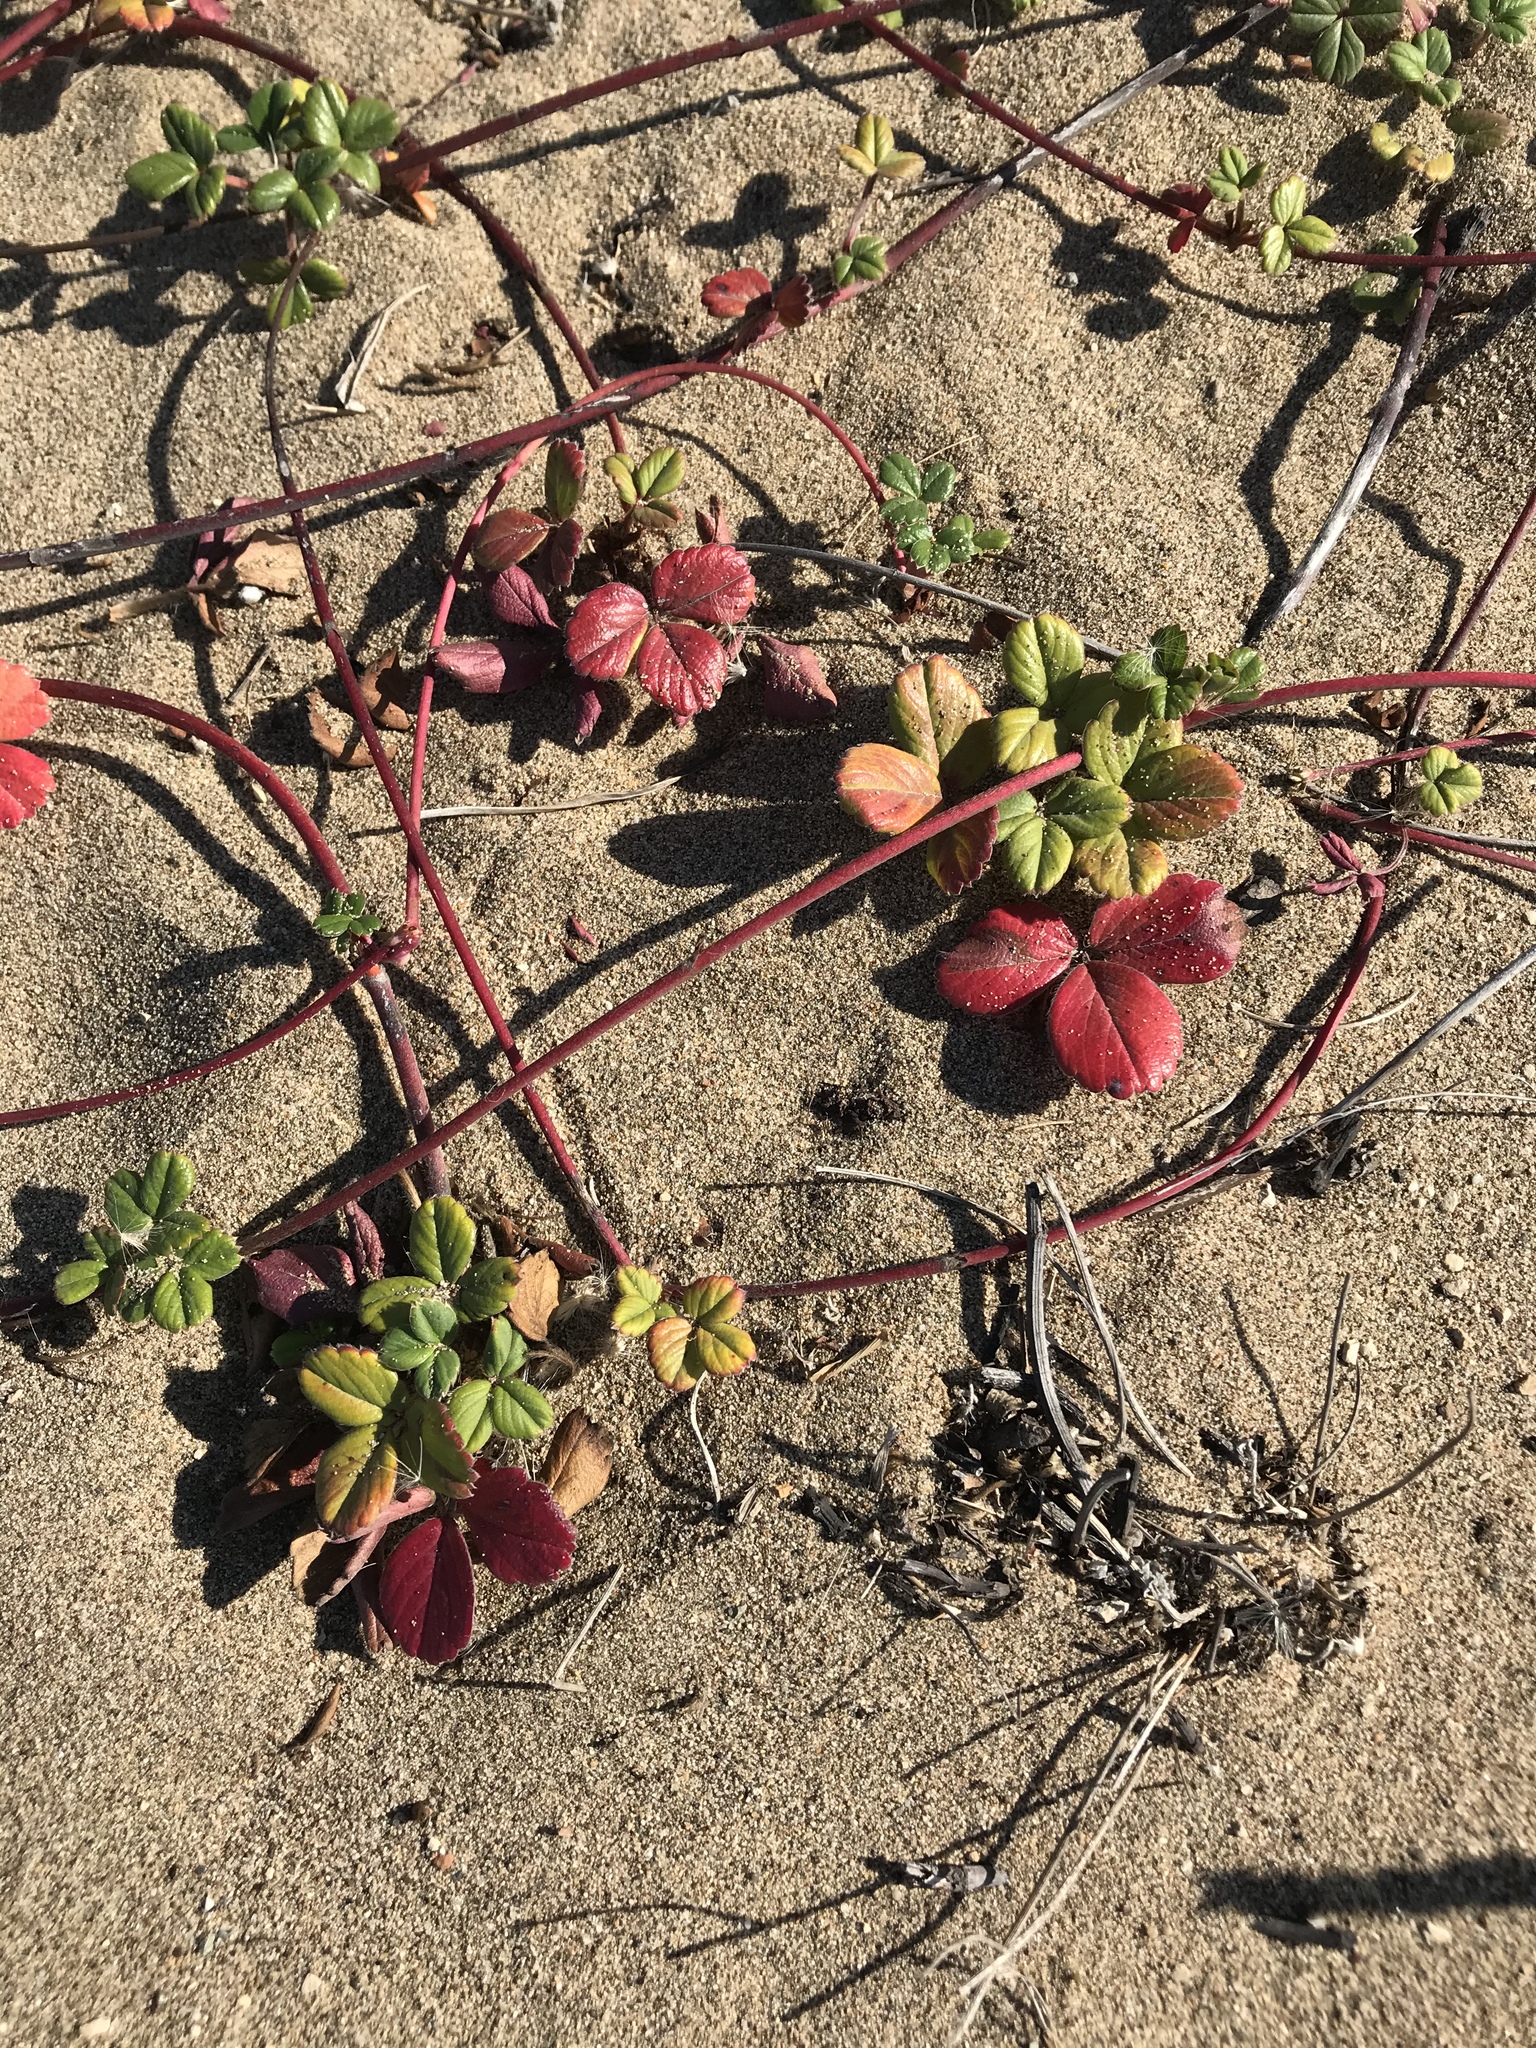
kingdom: Plantae
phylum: Tracheophyta
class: Magnoliopsida
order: Rosales
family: Rosaceae
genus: Fragaria
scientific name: Fragaria chiloensis
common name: Beach strawberry
